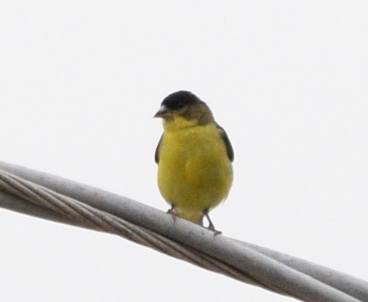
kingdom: Animalia
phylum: Chordata
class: Aves
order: Passeriformes
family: Fringillidae
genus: Spinus
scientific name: Spinus psaltria
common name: Lesser goldfinch
